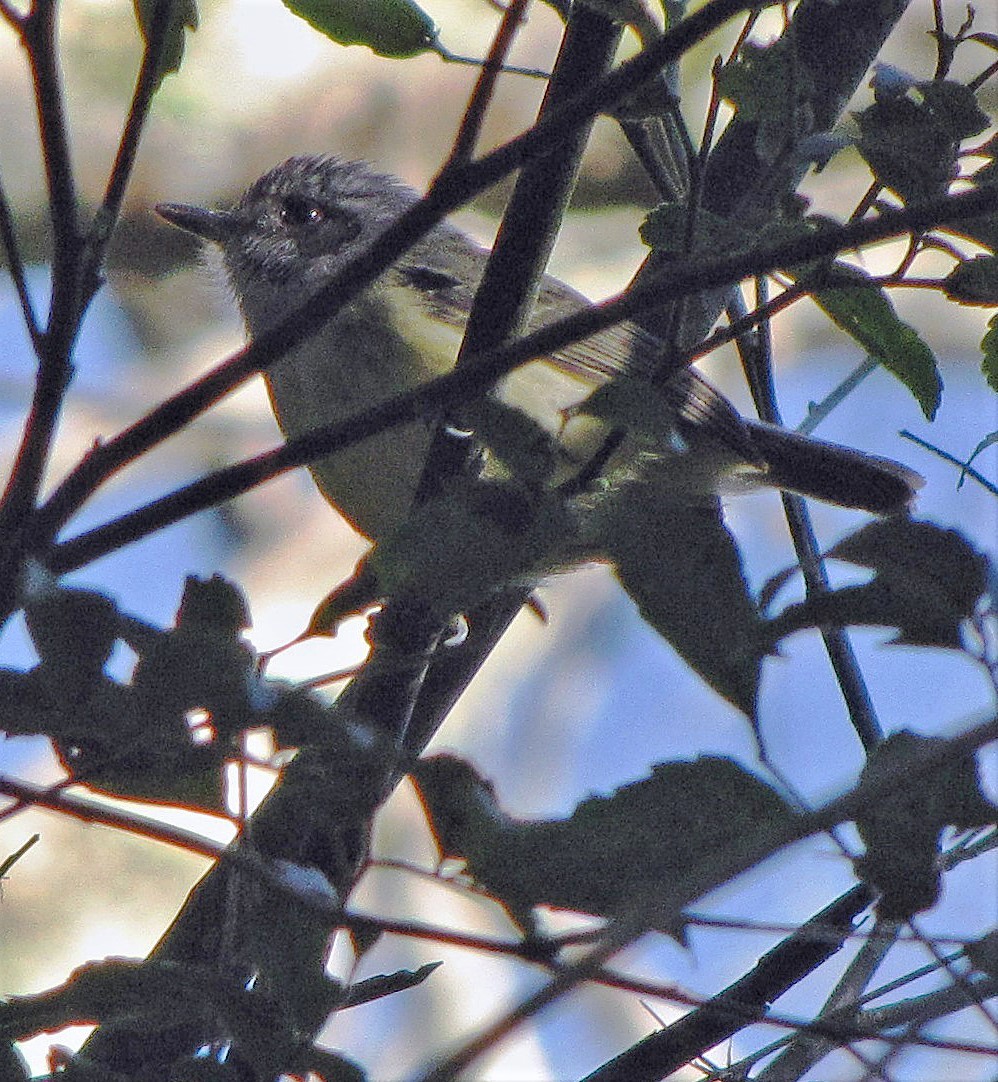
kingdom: Animalia
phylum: Chordata
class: Aves
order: Passeriformes
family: Thamnophilidae
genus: Dysithamnus
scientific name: Dysithamnus mentalis
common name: Plain antvireo
